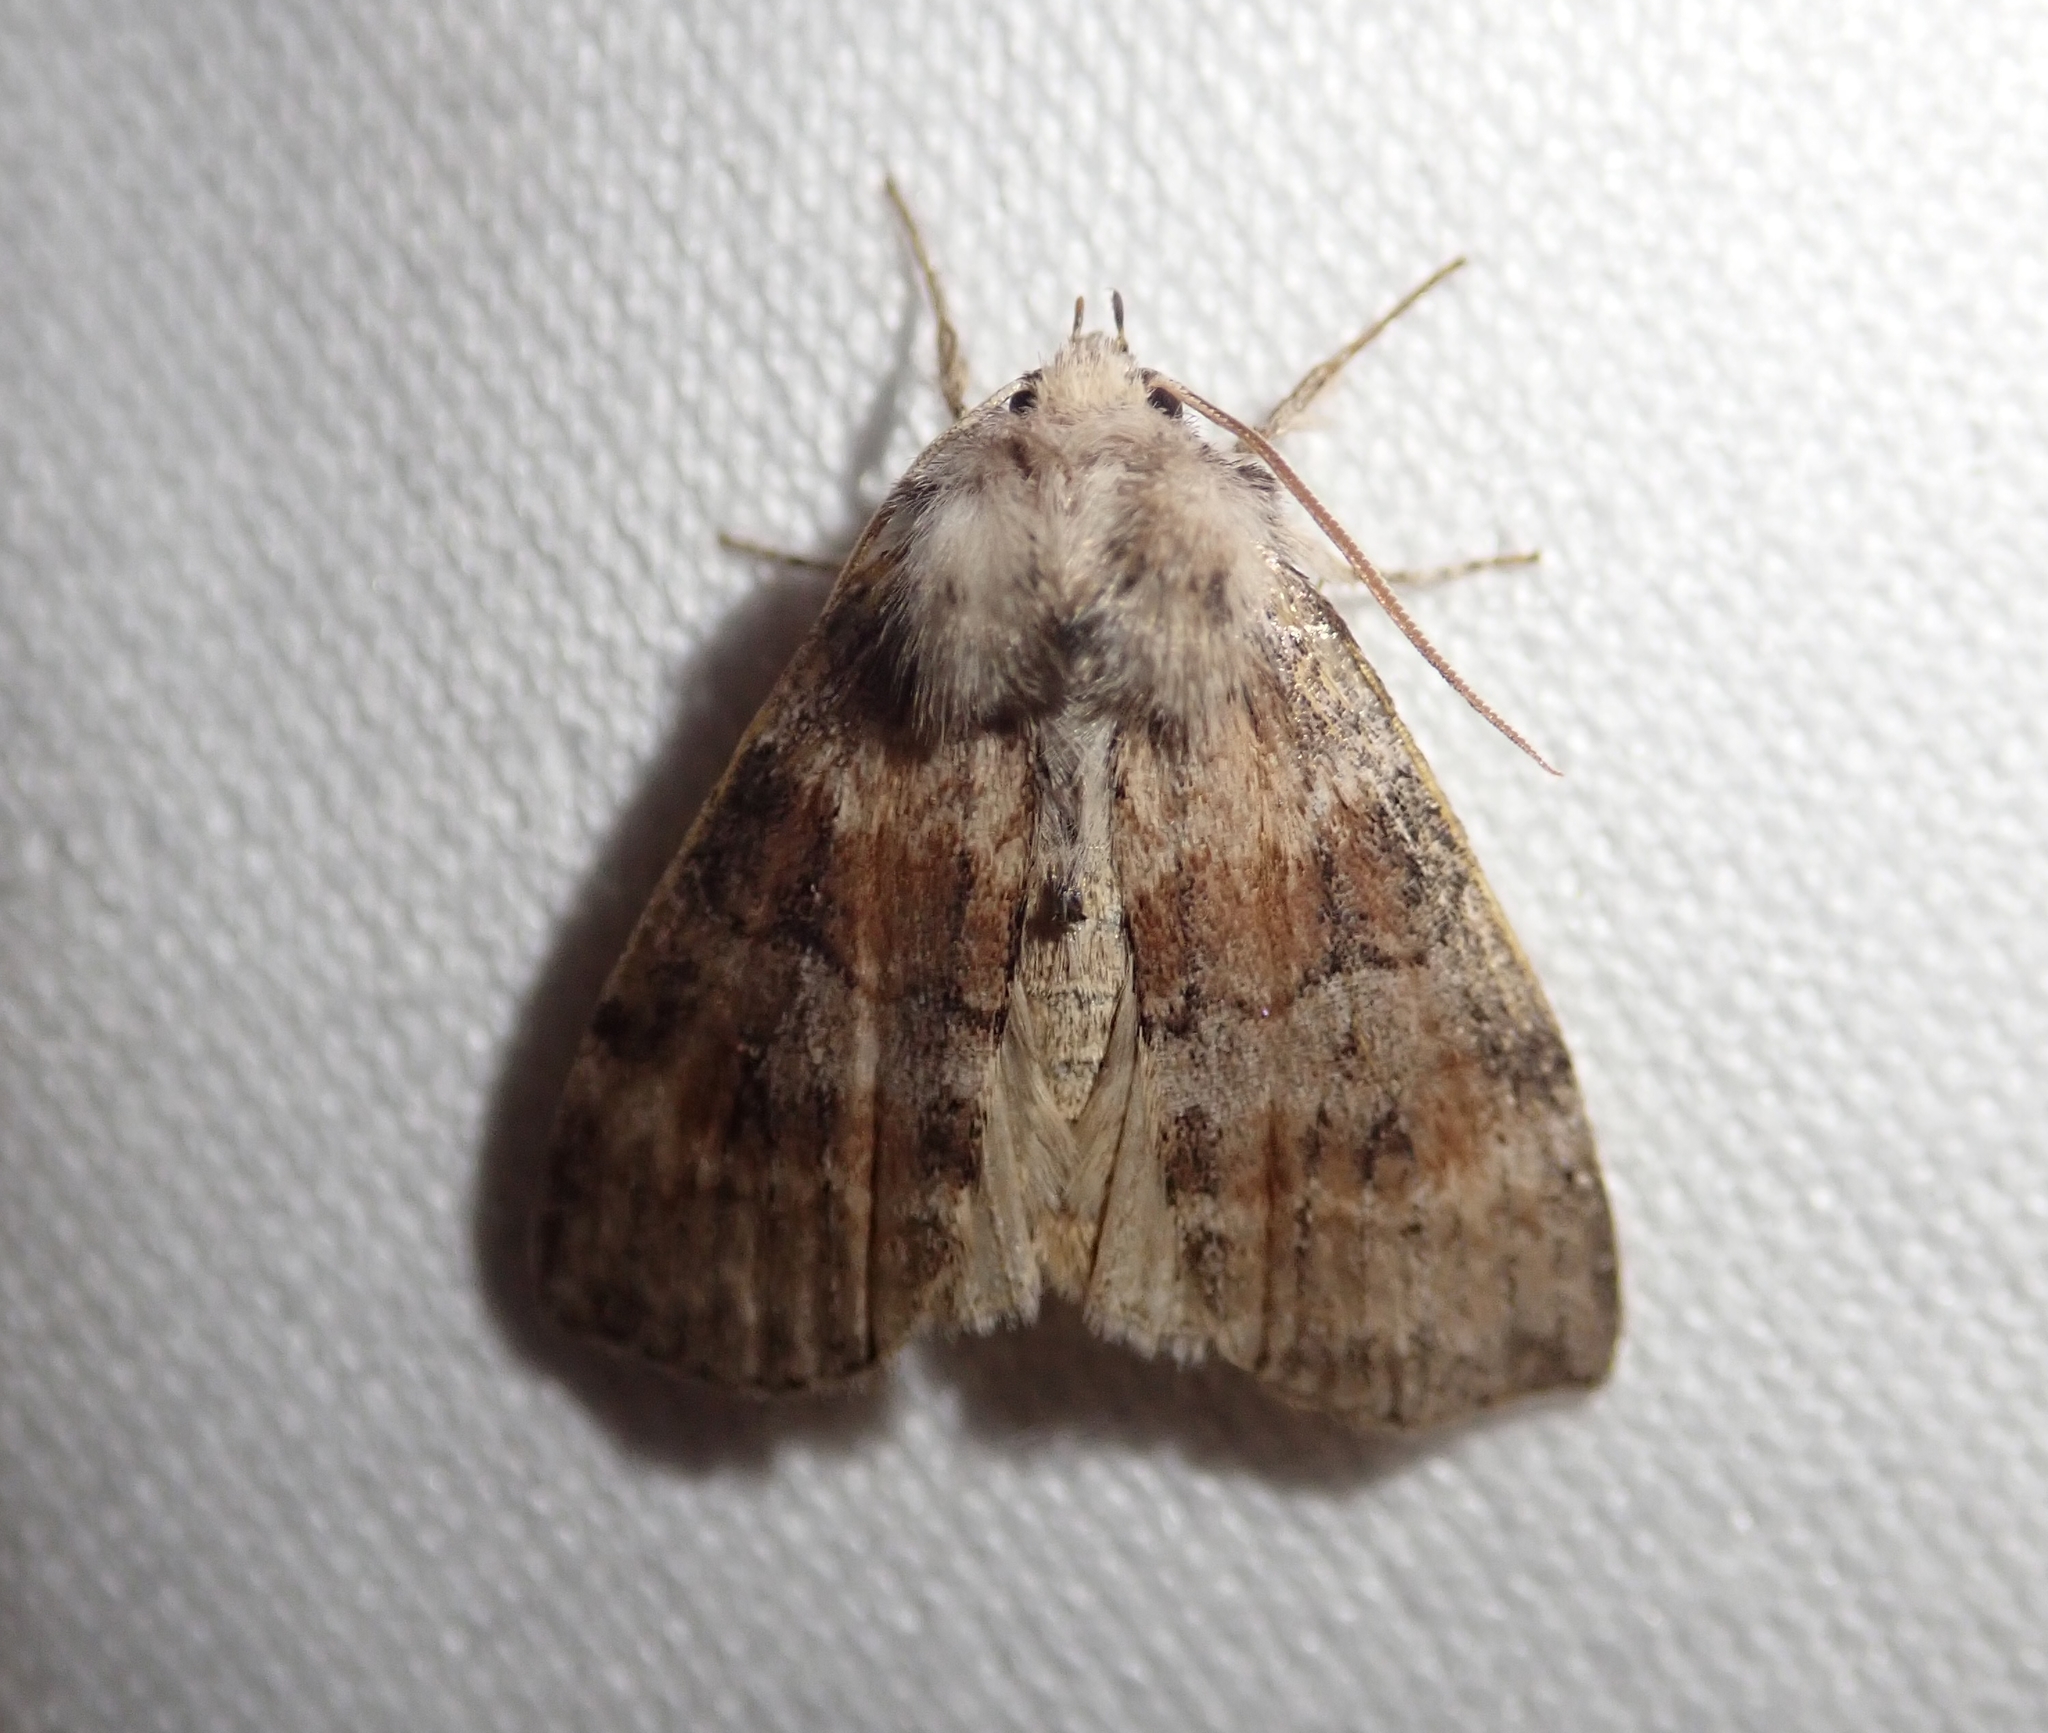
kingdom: Animalia
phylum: Arthropoda
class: Insecta
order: Lepidoptera
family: Drepanidae
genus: Cymatophorina
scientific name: Cymatophorina diluta
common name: Oak lutestring
